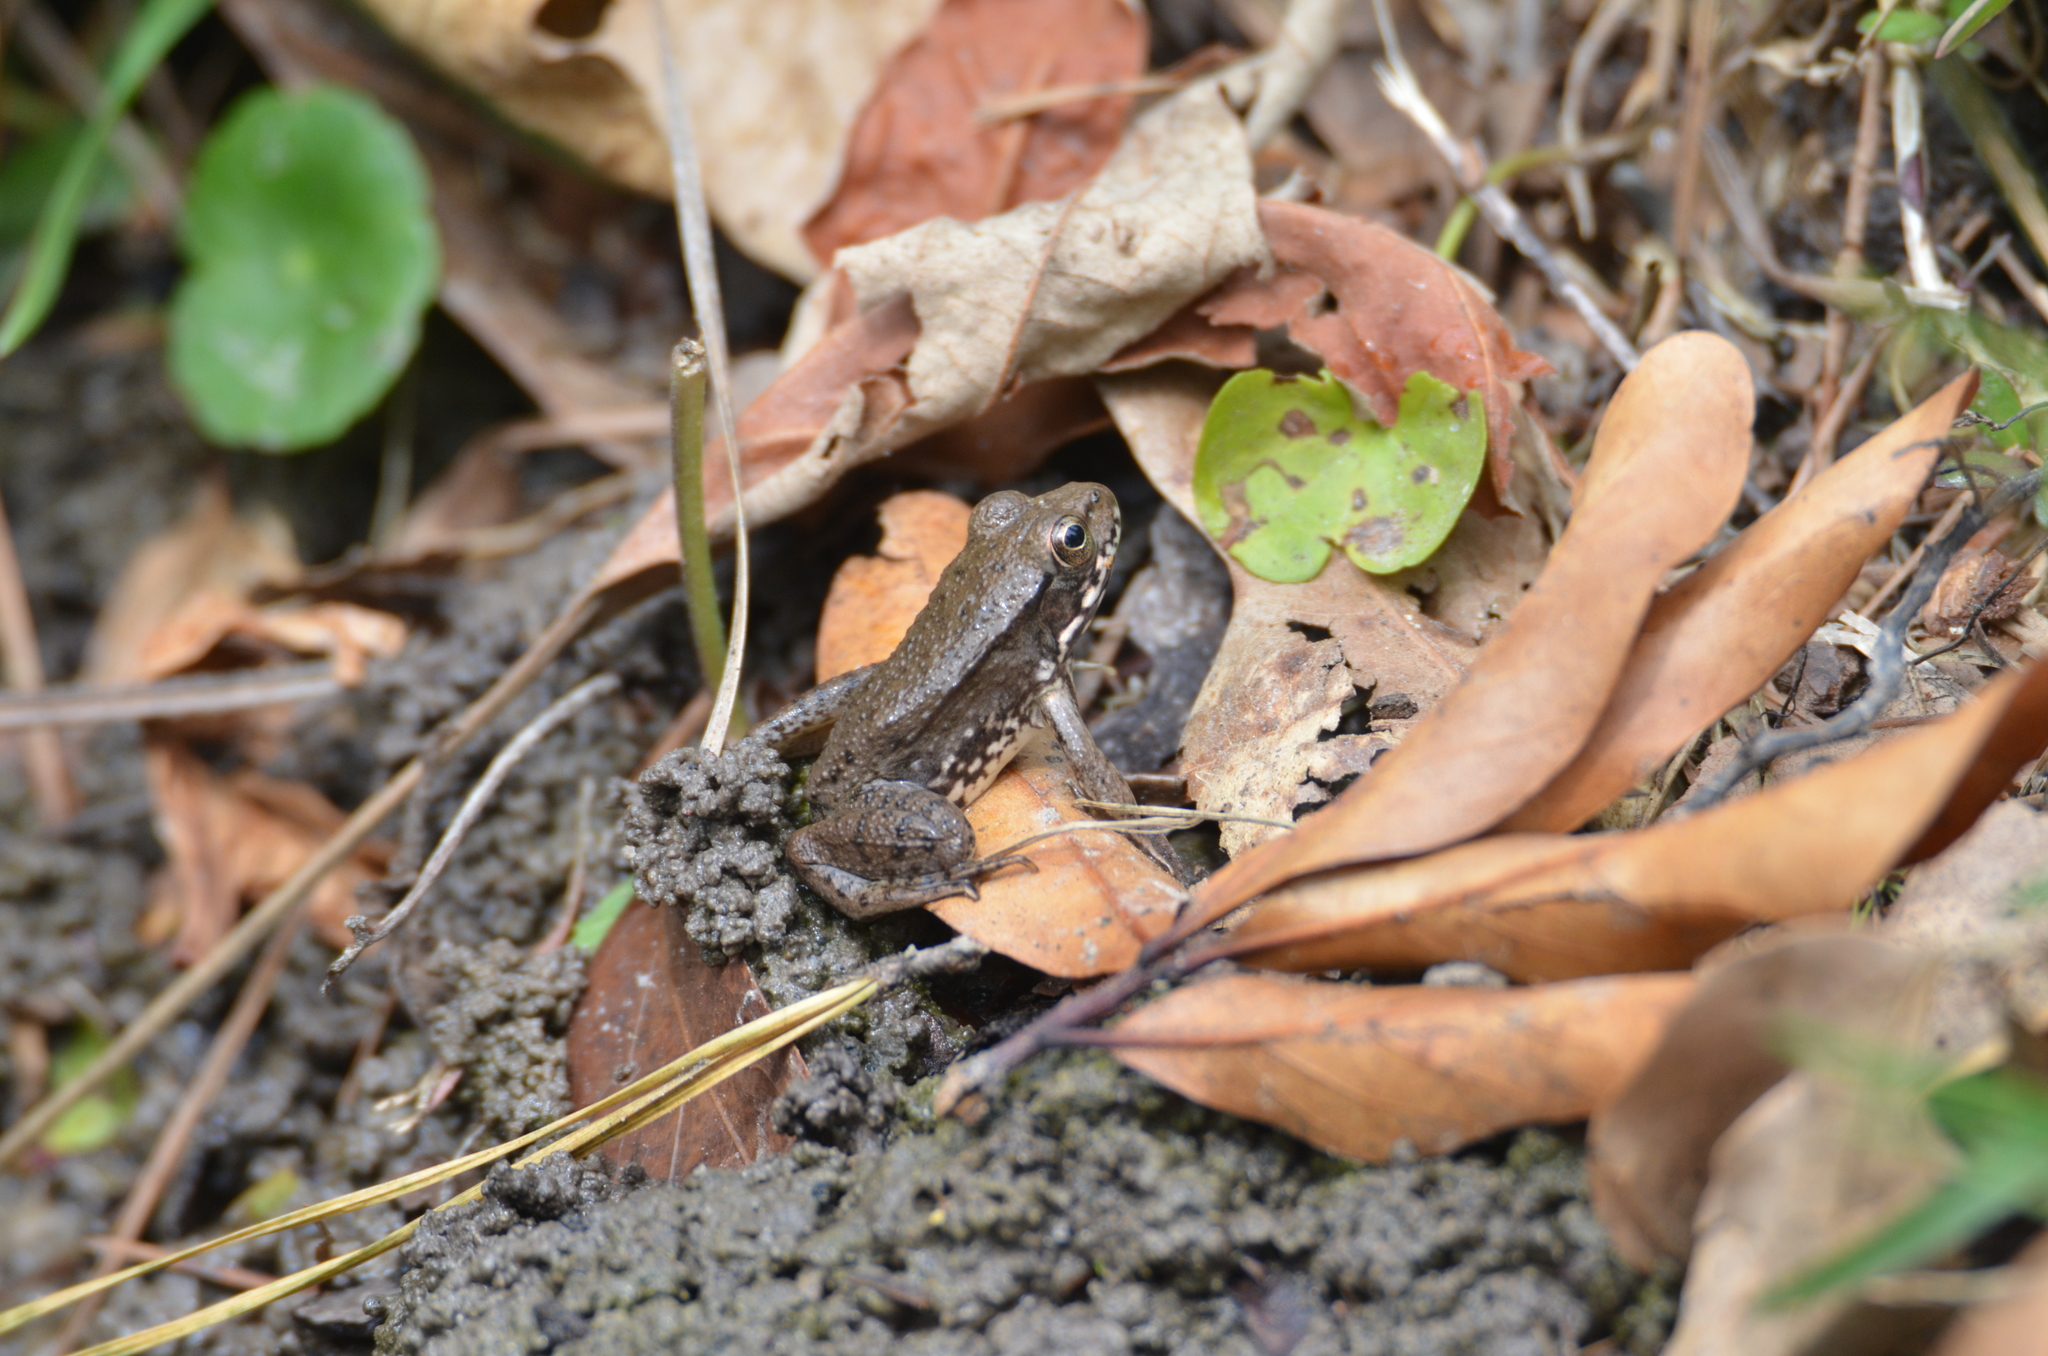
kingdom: Animalia
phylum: Chordata
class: Amphibia
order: Anura
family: Ranidae
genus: Lithobates
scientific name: Lithobates clamitans
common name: Green frog
